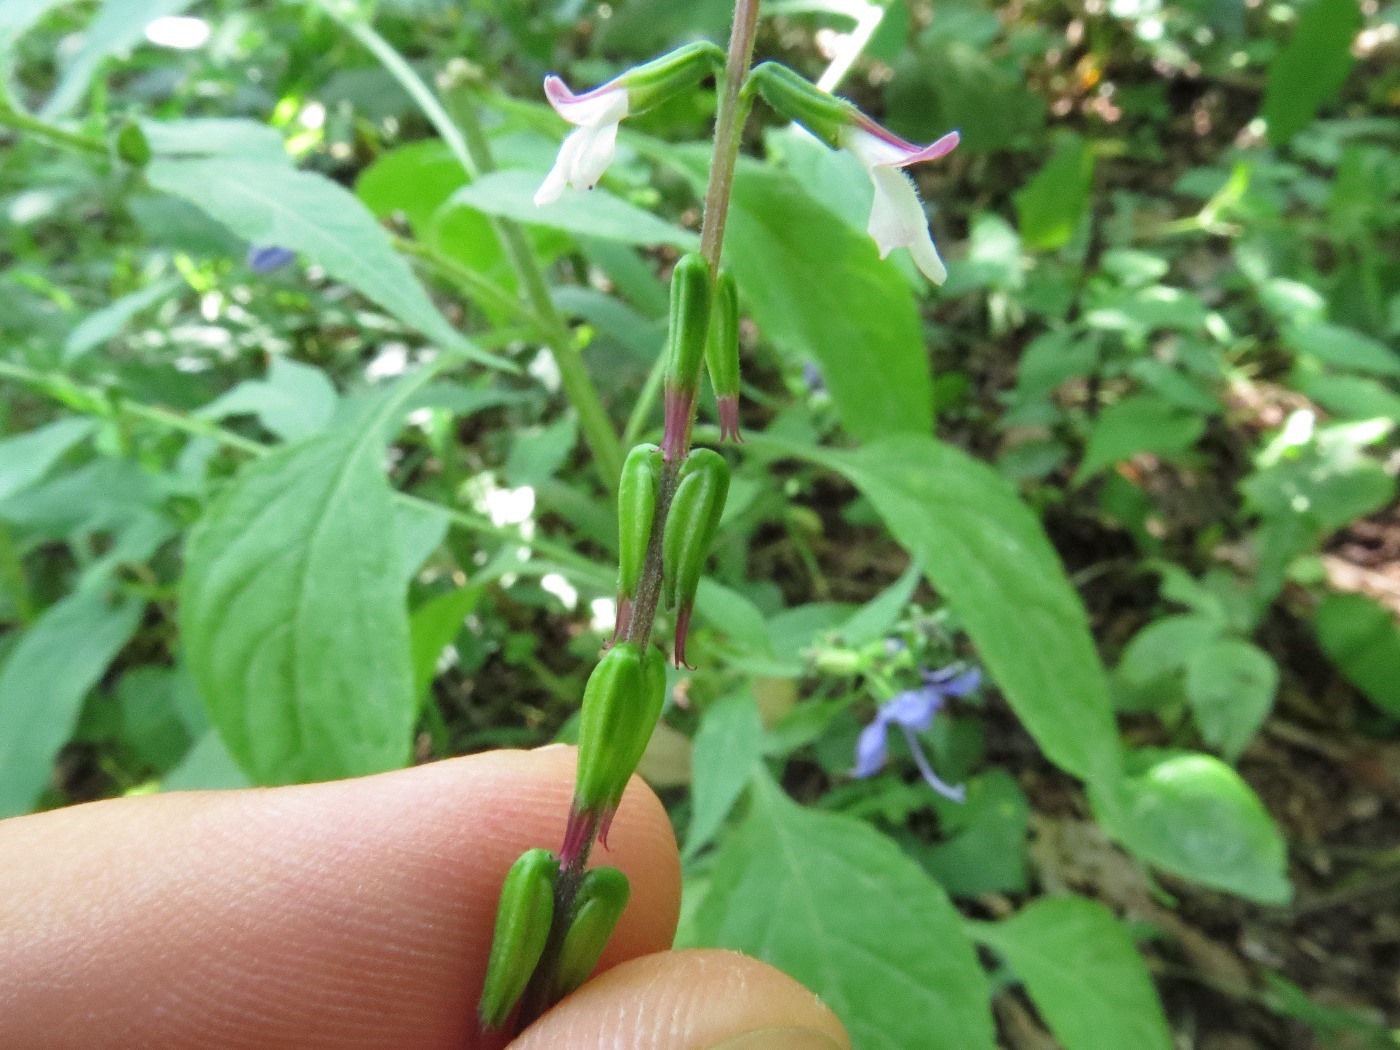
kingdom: Plantae
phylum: Tracheophyta
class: Magnoliopsida
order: Lamiales
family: Phrymaceae
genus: Phryma
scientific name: Phryma leptostachya
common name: American lopseed
